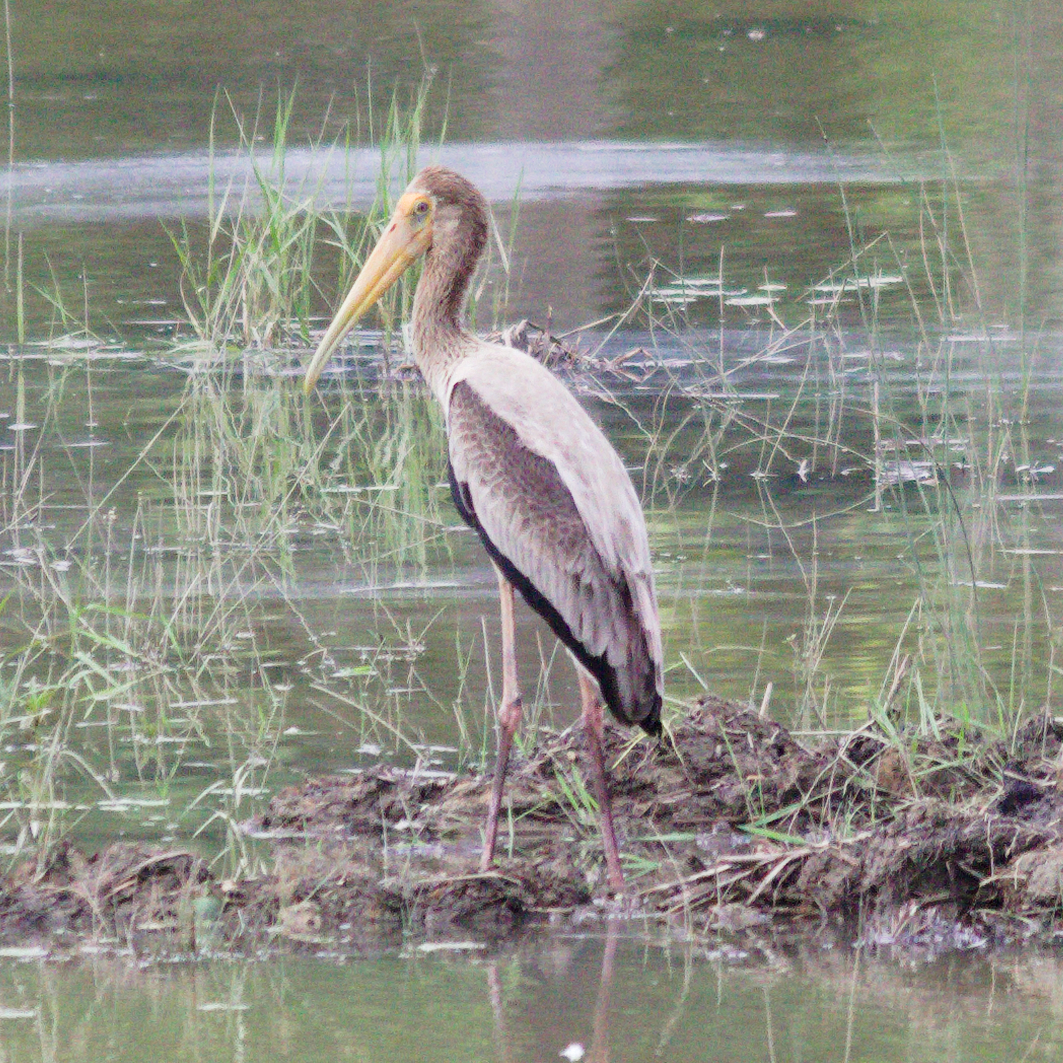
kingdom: Animalia
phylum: Chordata
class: Aves
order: Ciconiiformes
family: Ciconiidae
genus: Mycteria
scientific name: Mycteria leucocephala
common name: Painted stork
